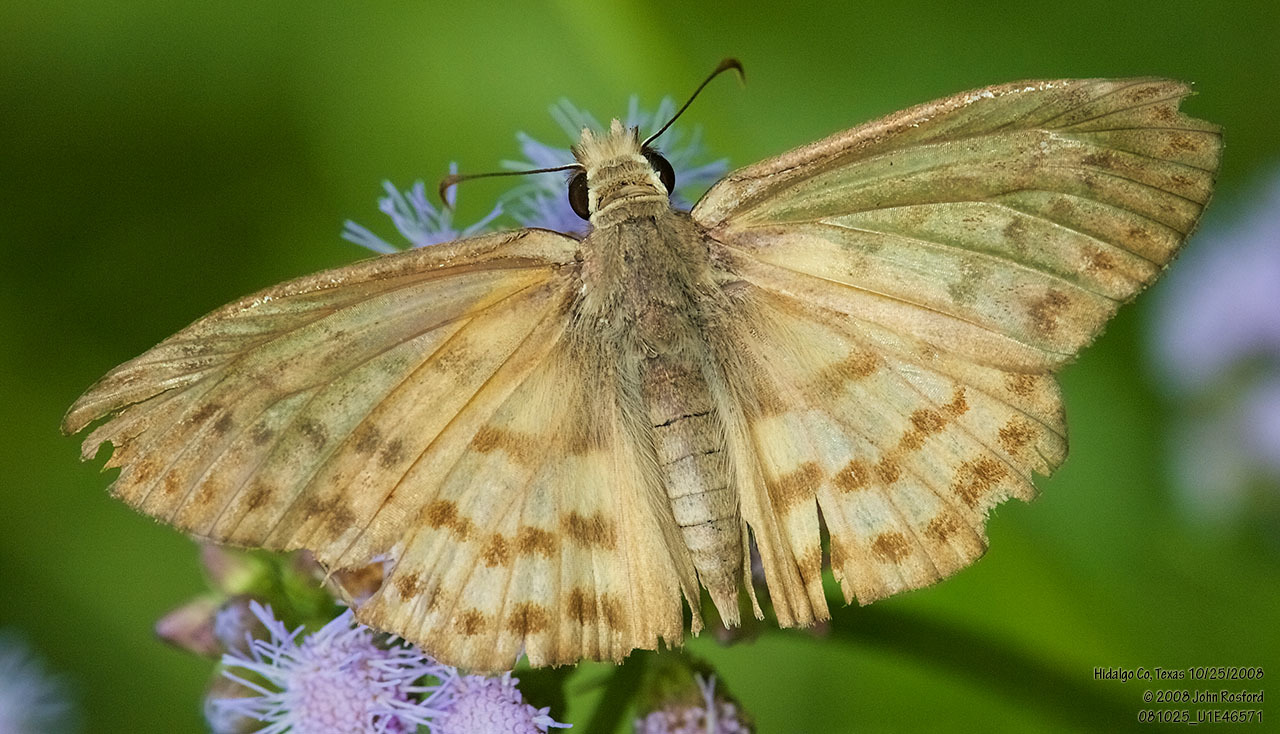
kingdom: Animalia
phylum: Arthropoda
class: Insecta
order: Lepidoptera
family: Hesperiidae
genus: Timochares
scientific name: Timochares ruptifasciata
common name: Brown-banded skipper
